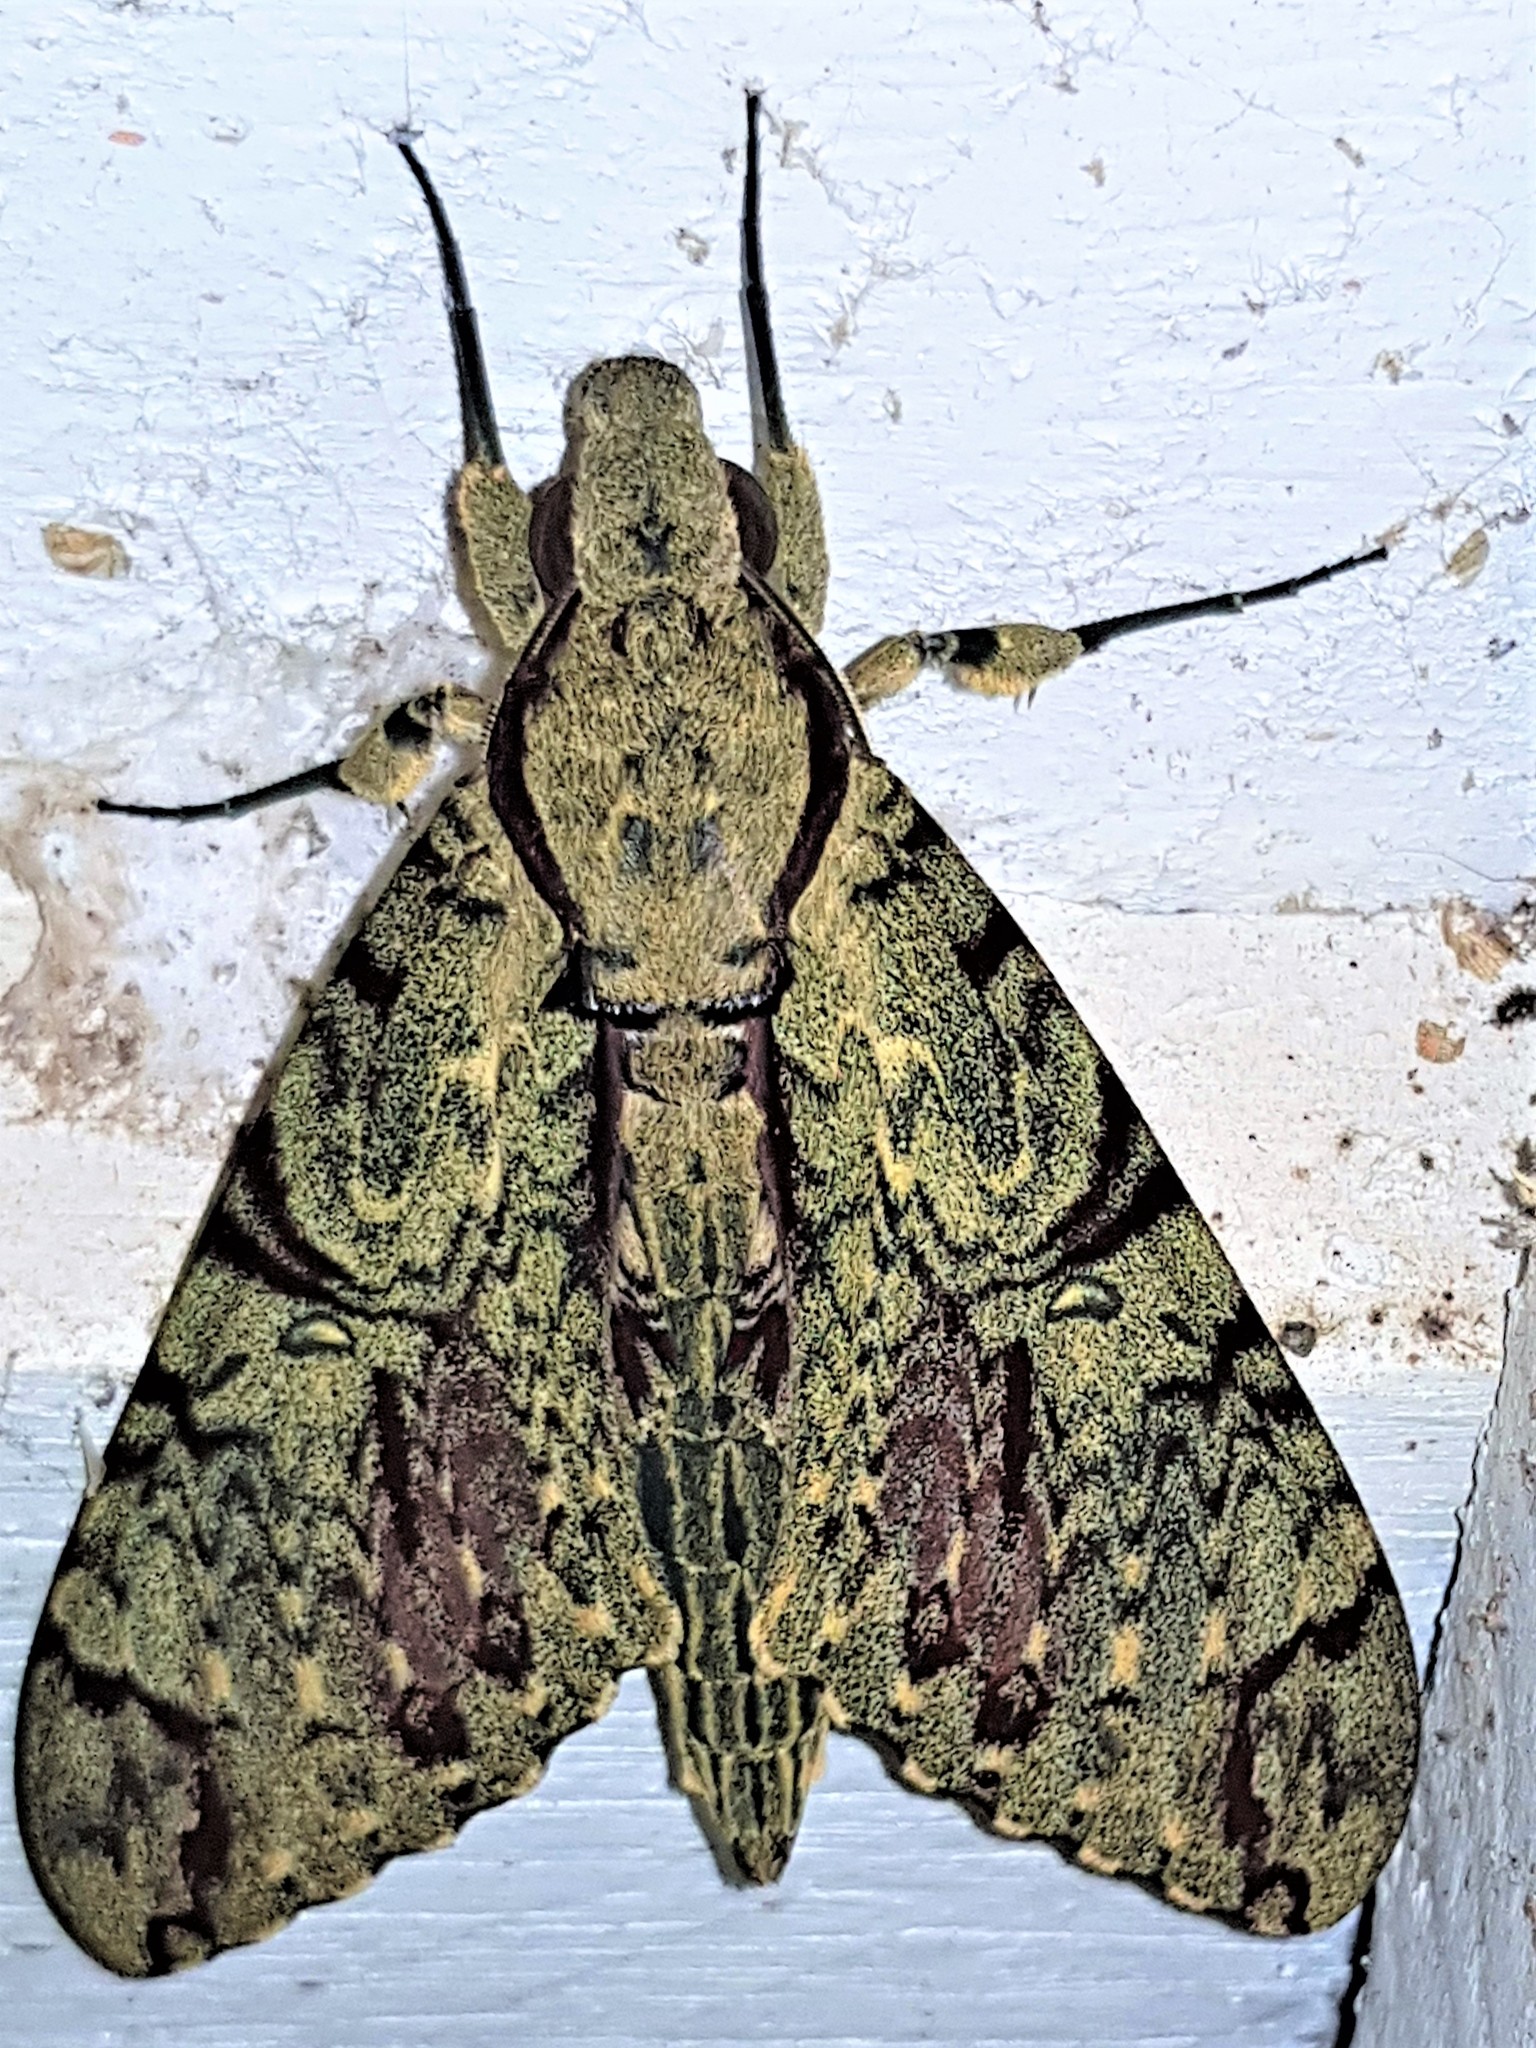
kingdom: Animalia
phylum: Arthropoda
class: Insecta
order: Lepidoptera
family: Sphingidae
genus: Amphimoea
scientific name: Amphimoea walkeri
